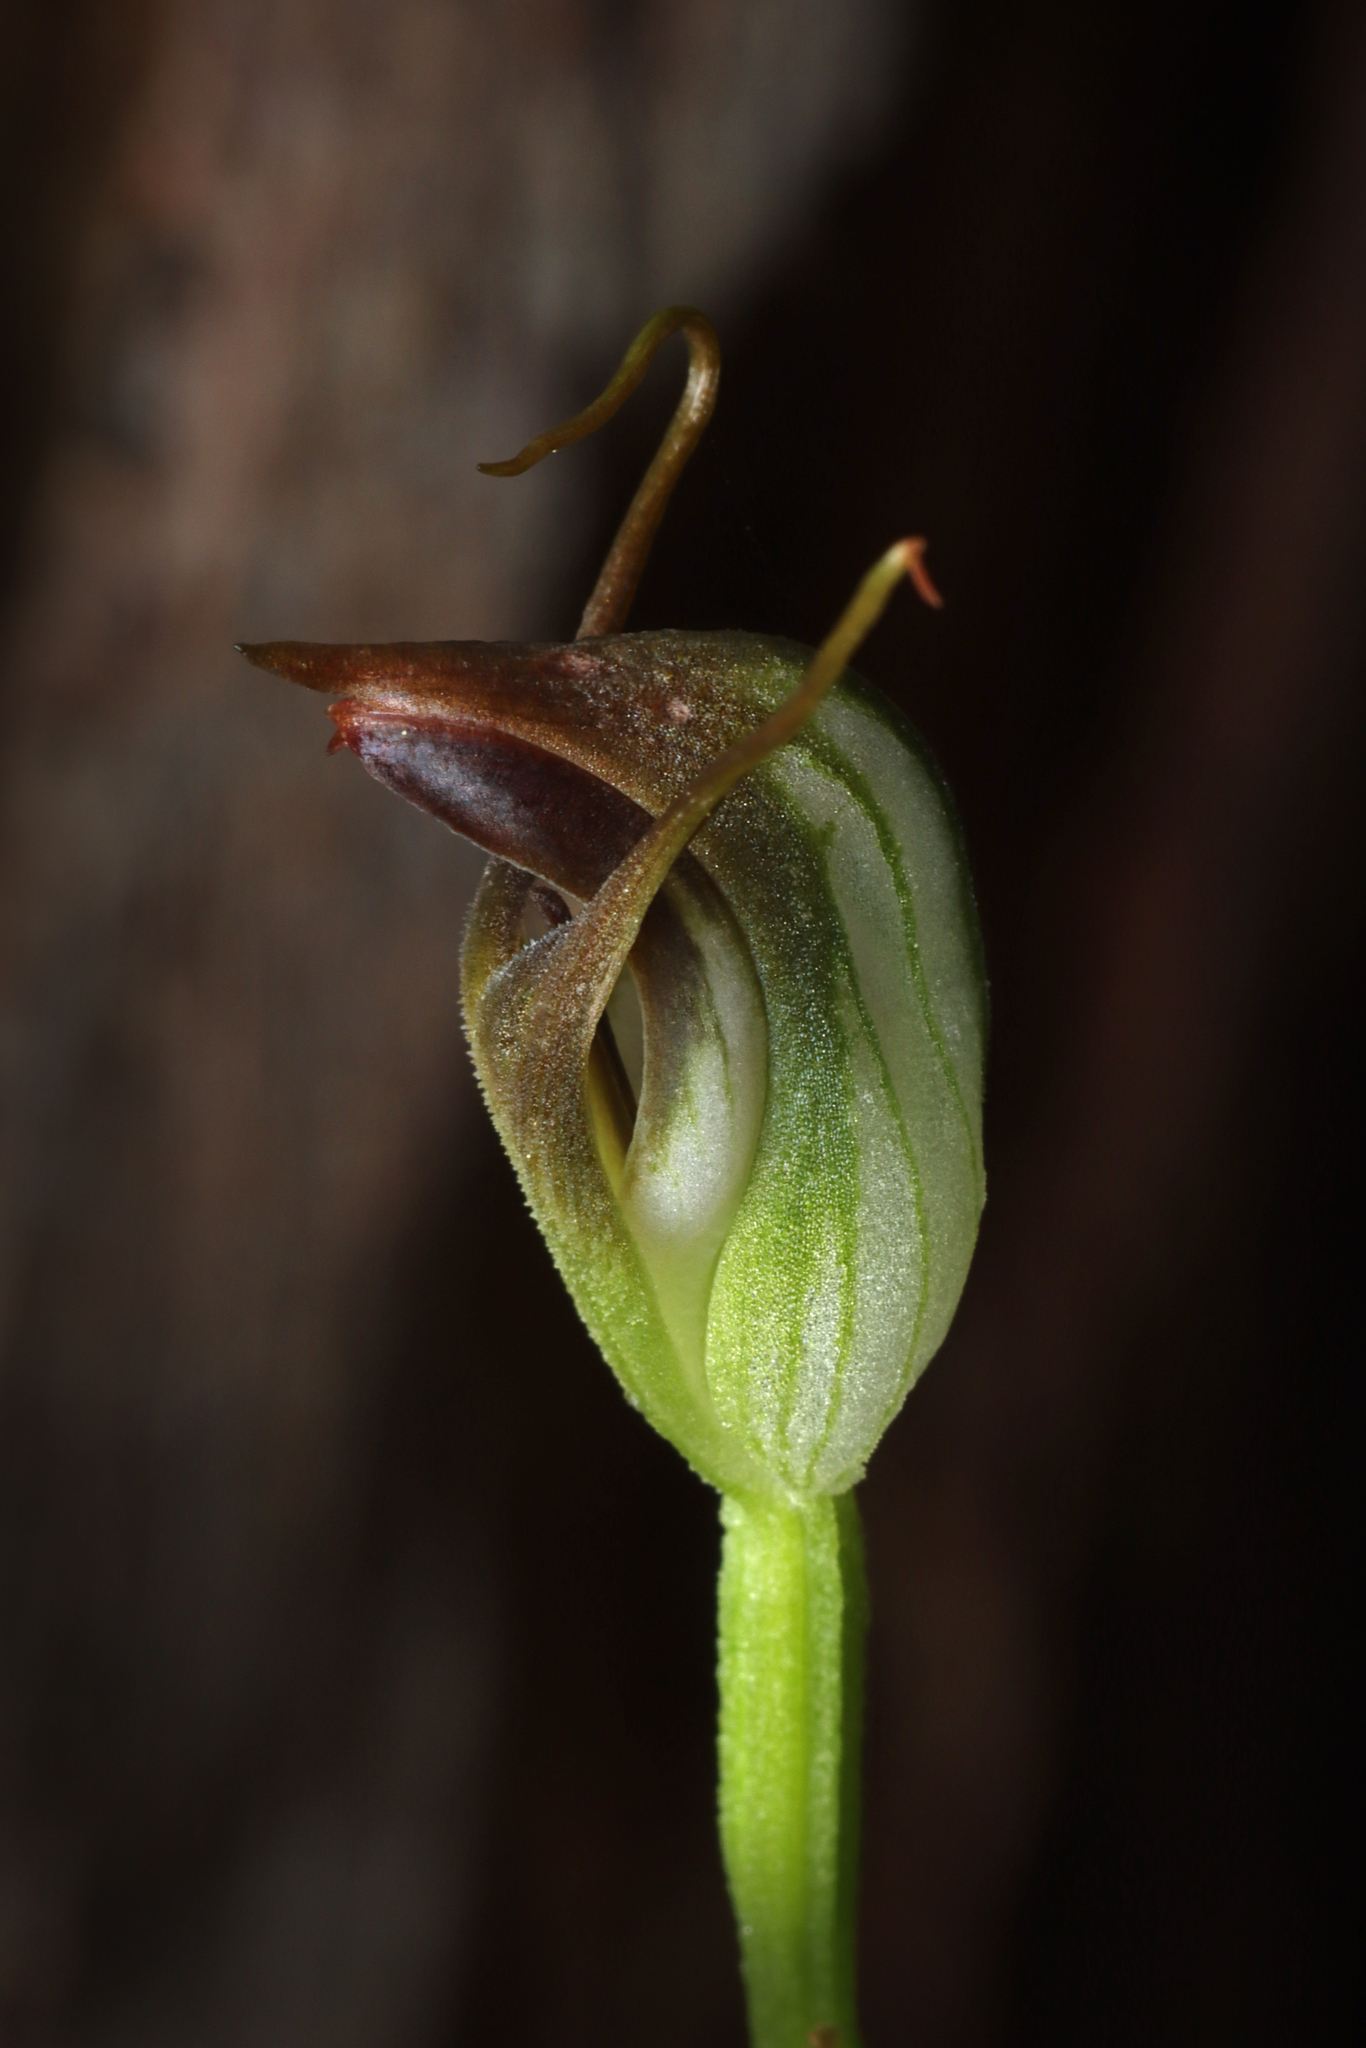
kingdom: Plantae
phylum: Tracheophyta
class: Liliopsida
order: Asparagales
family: Orchidaceae
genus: Pterostylis
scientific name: Pterostylis pedunculata
